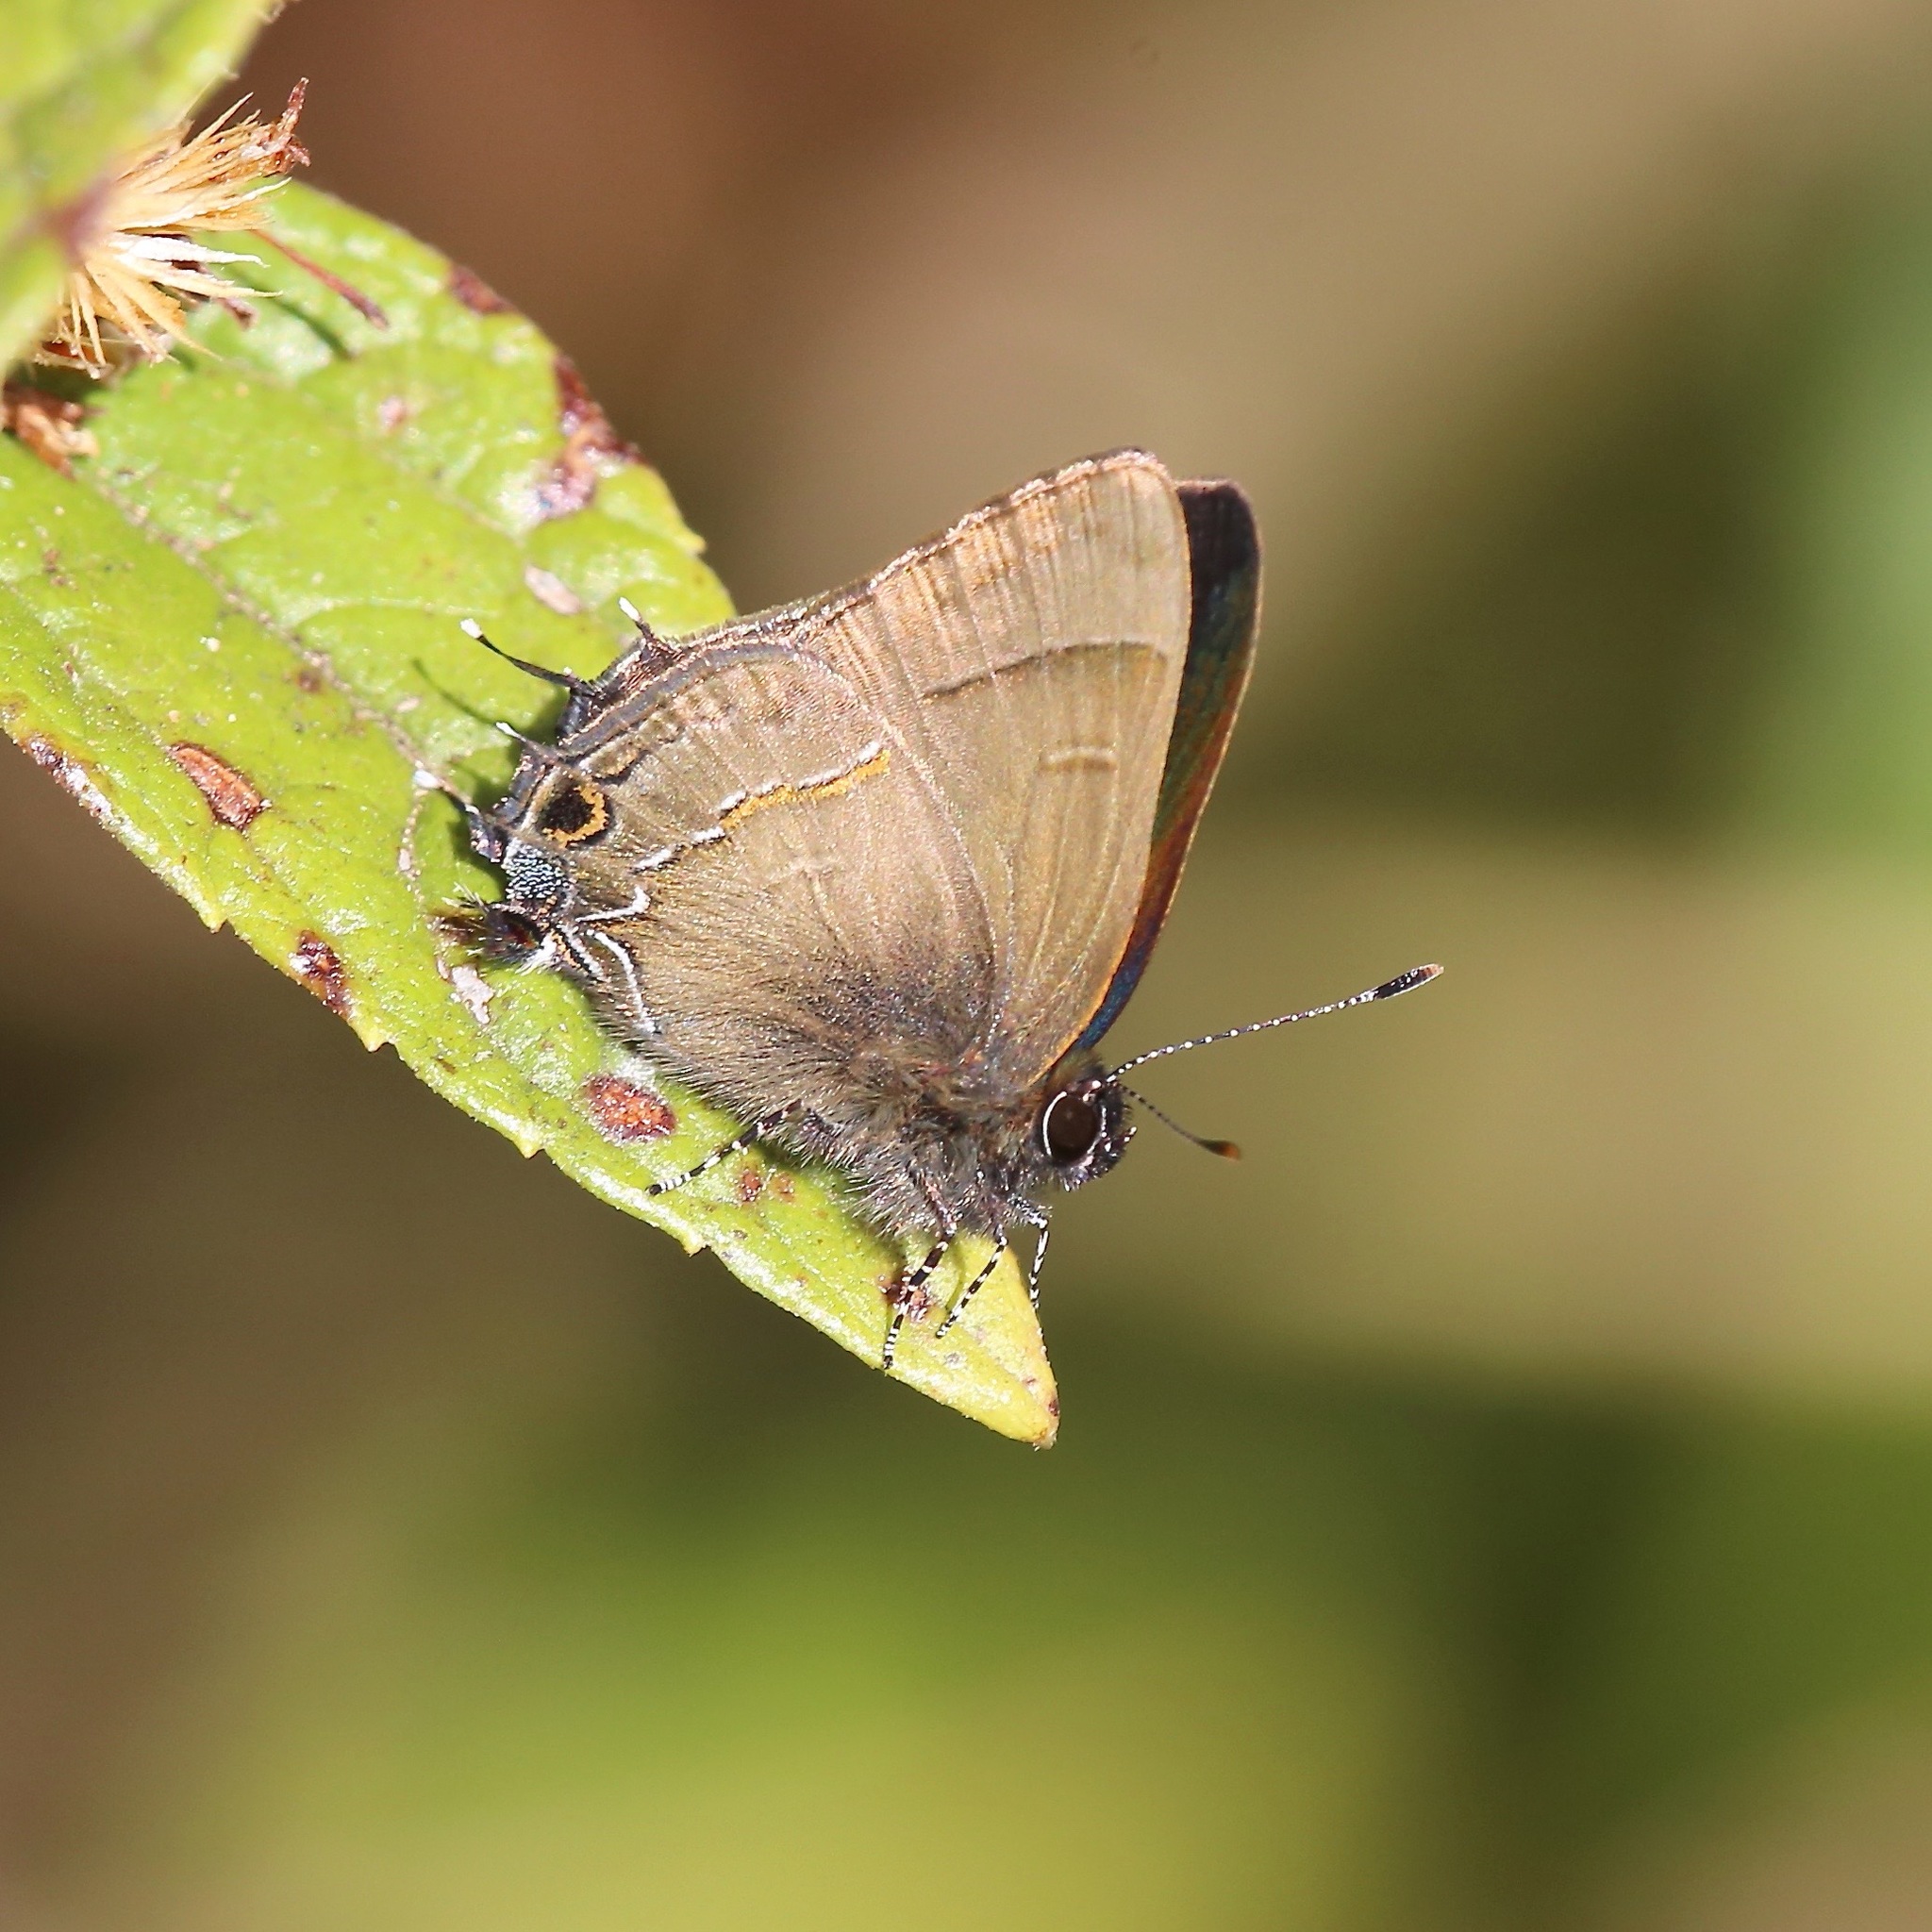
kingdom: Animalia
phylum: Arthropoda
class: Insecta
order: Lepidoptera
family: Lycaenidae
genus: Electrostrymon
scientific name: Electrostrymon denarius
